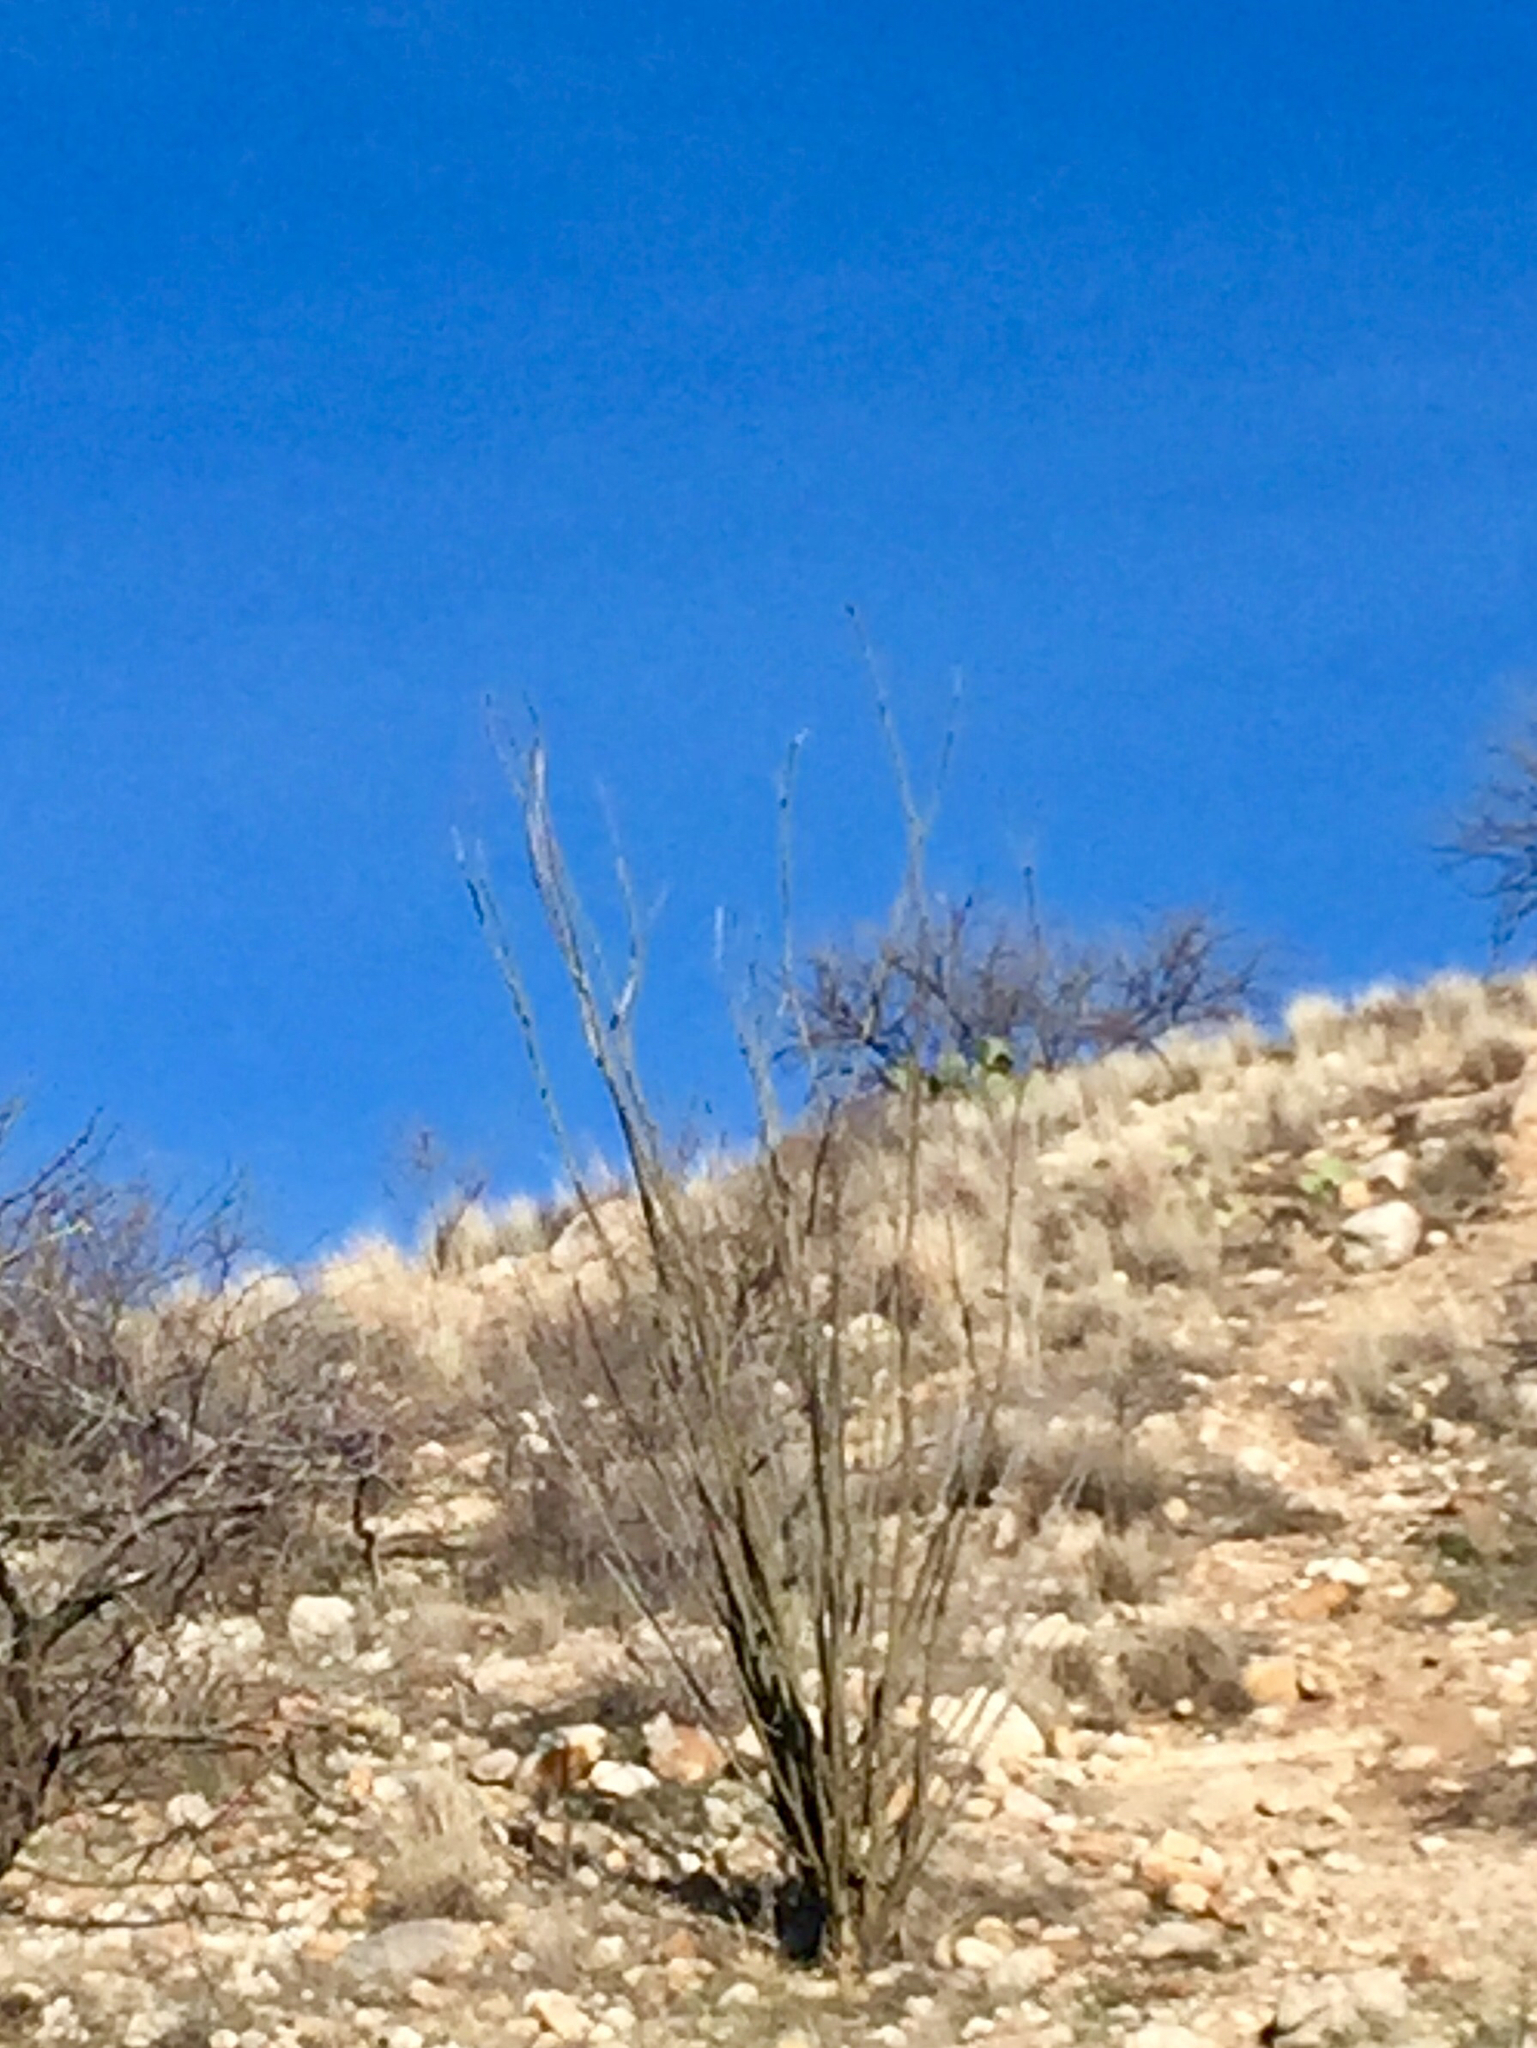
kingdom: Plantae
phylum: Tracheophyta
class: Magnoliopsida
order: Ericales
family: Fouquieriaceae
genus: Fouquieria
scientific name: Fouquieria splendens
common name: Vine-cactus
